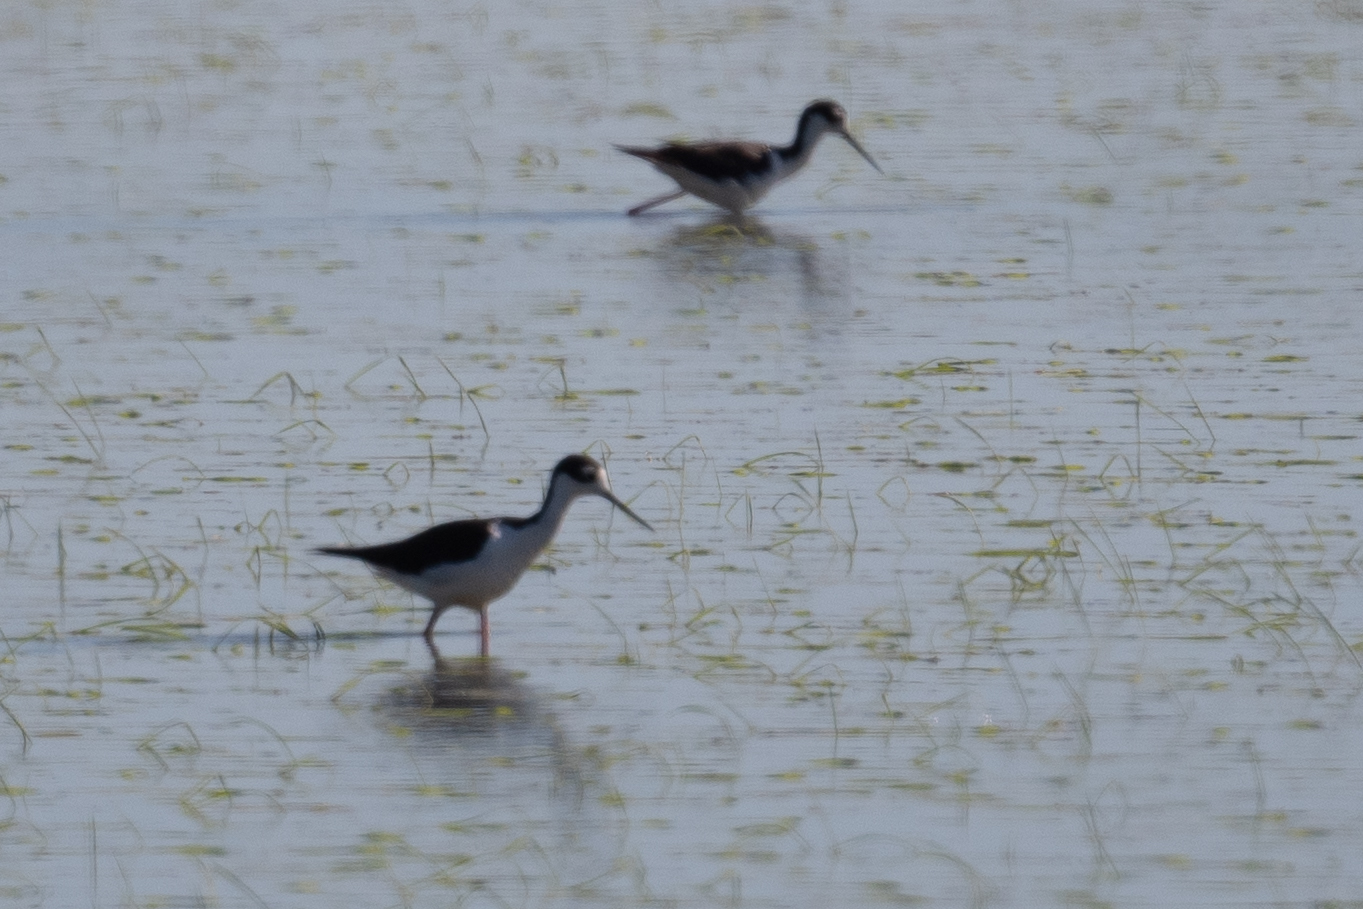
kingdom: Animalia
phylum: Chordata
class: Aves
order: Charadriiformes
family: Recurvirostridae
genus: Himantopus
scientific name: Himantopus mexicanus
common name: Black-necked stilt
